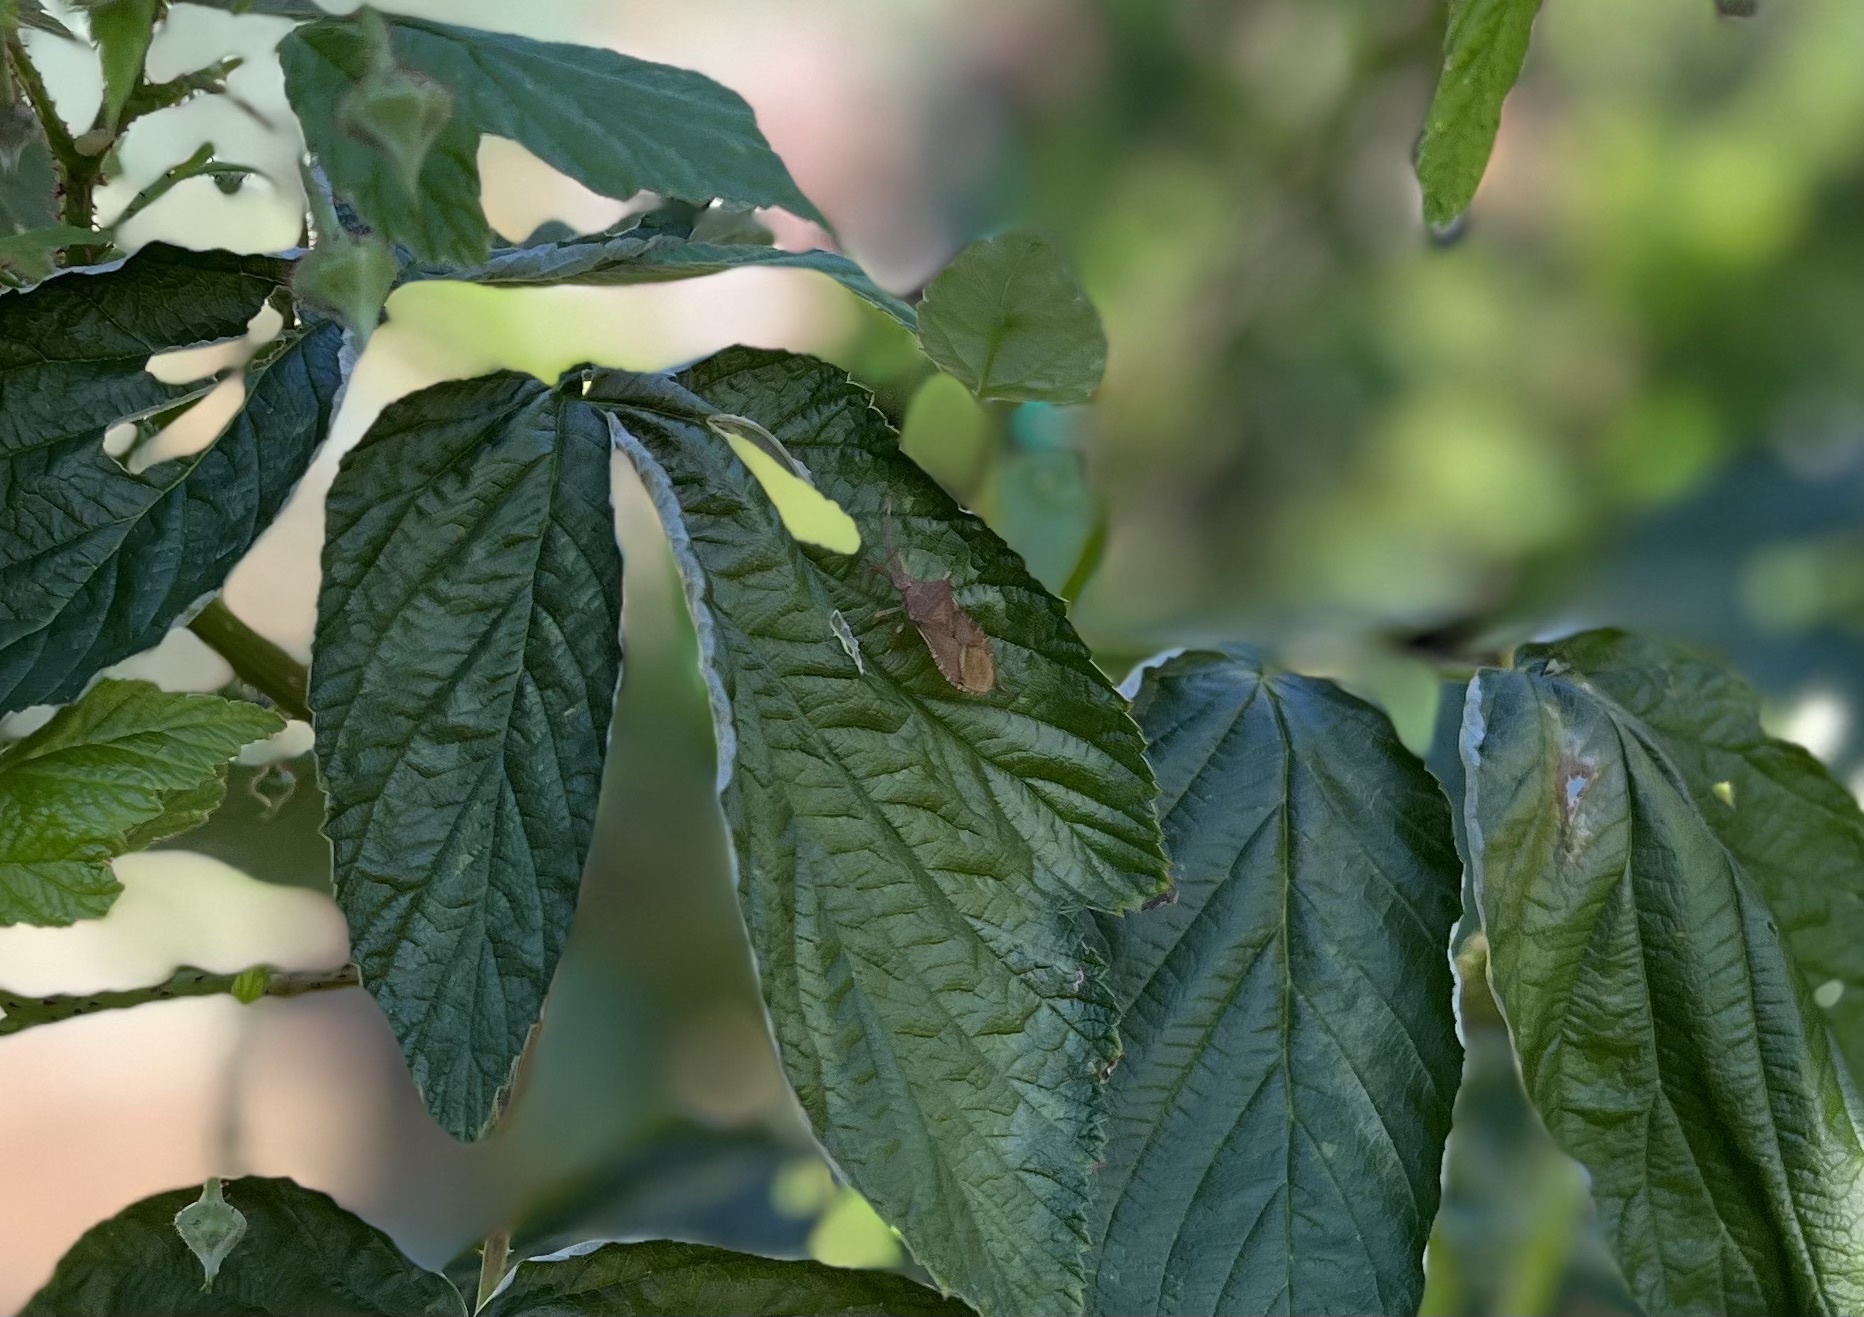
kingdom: Animalia
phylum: Arthropoda
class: Insecta
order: Hemiptera
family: Coreidae
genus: Gonocerus
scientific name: Gonocerus acuteangulatus
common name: Box bug
